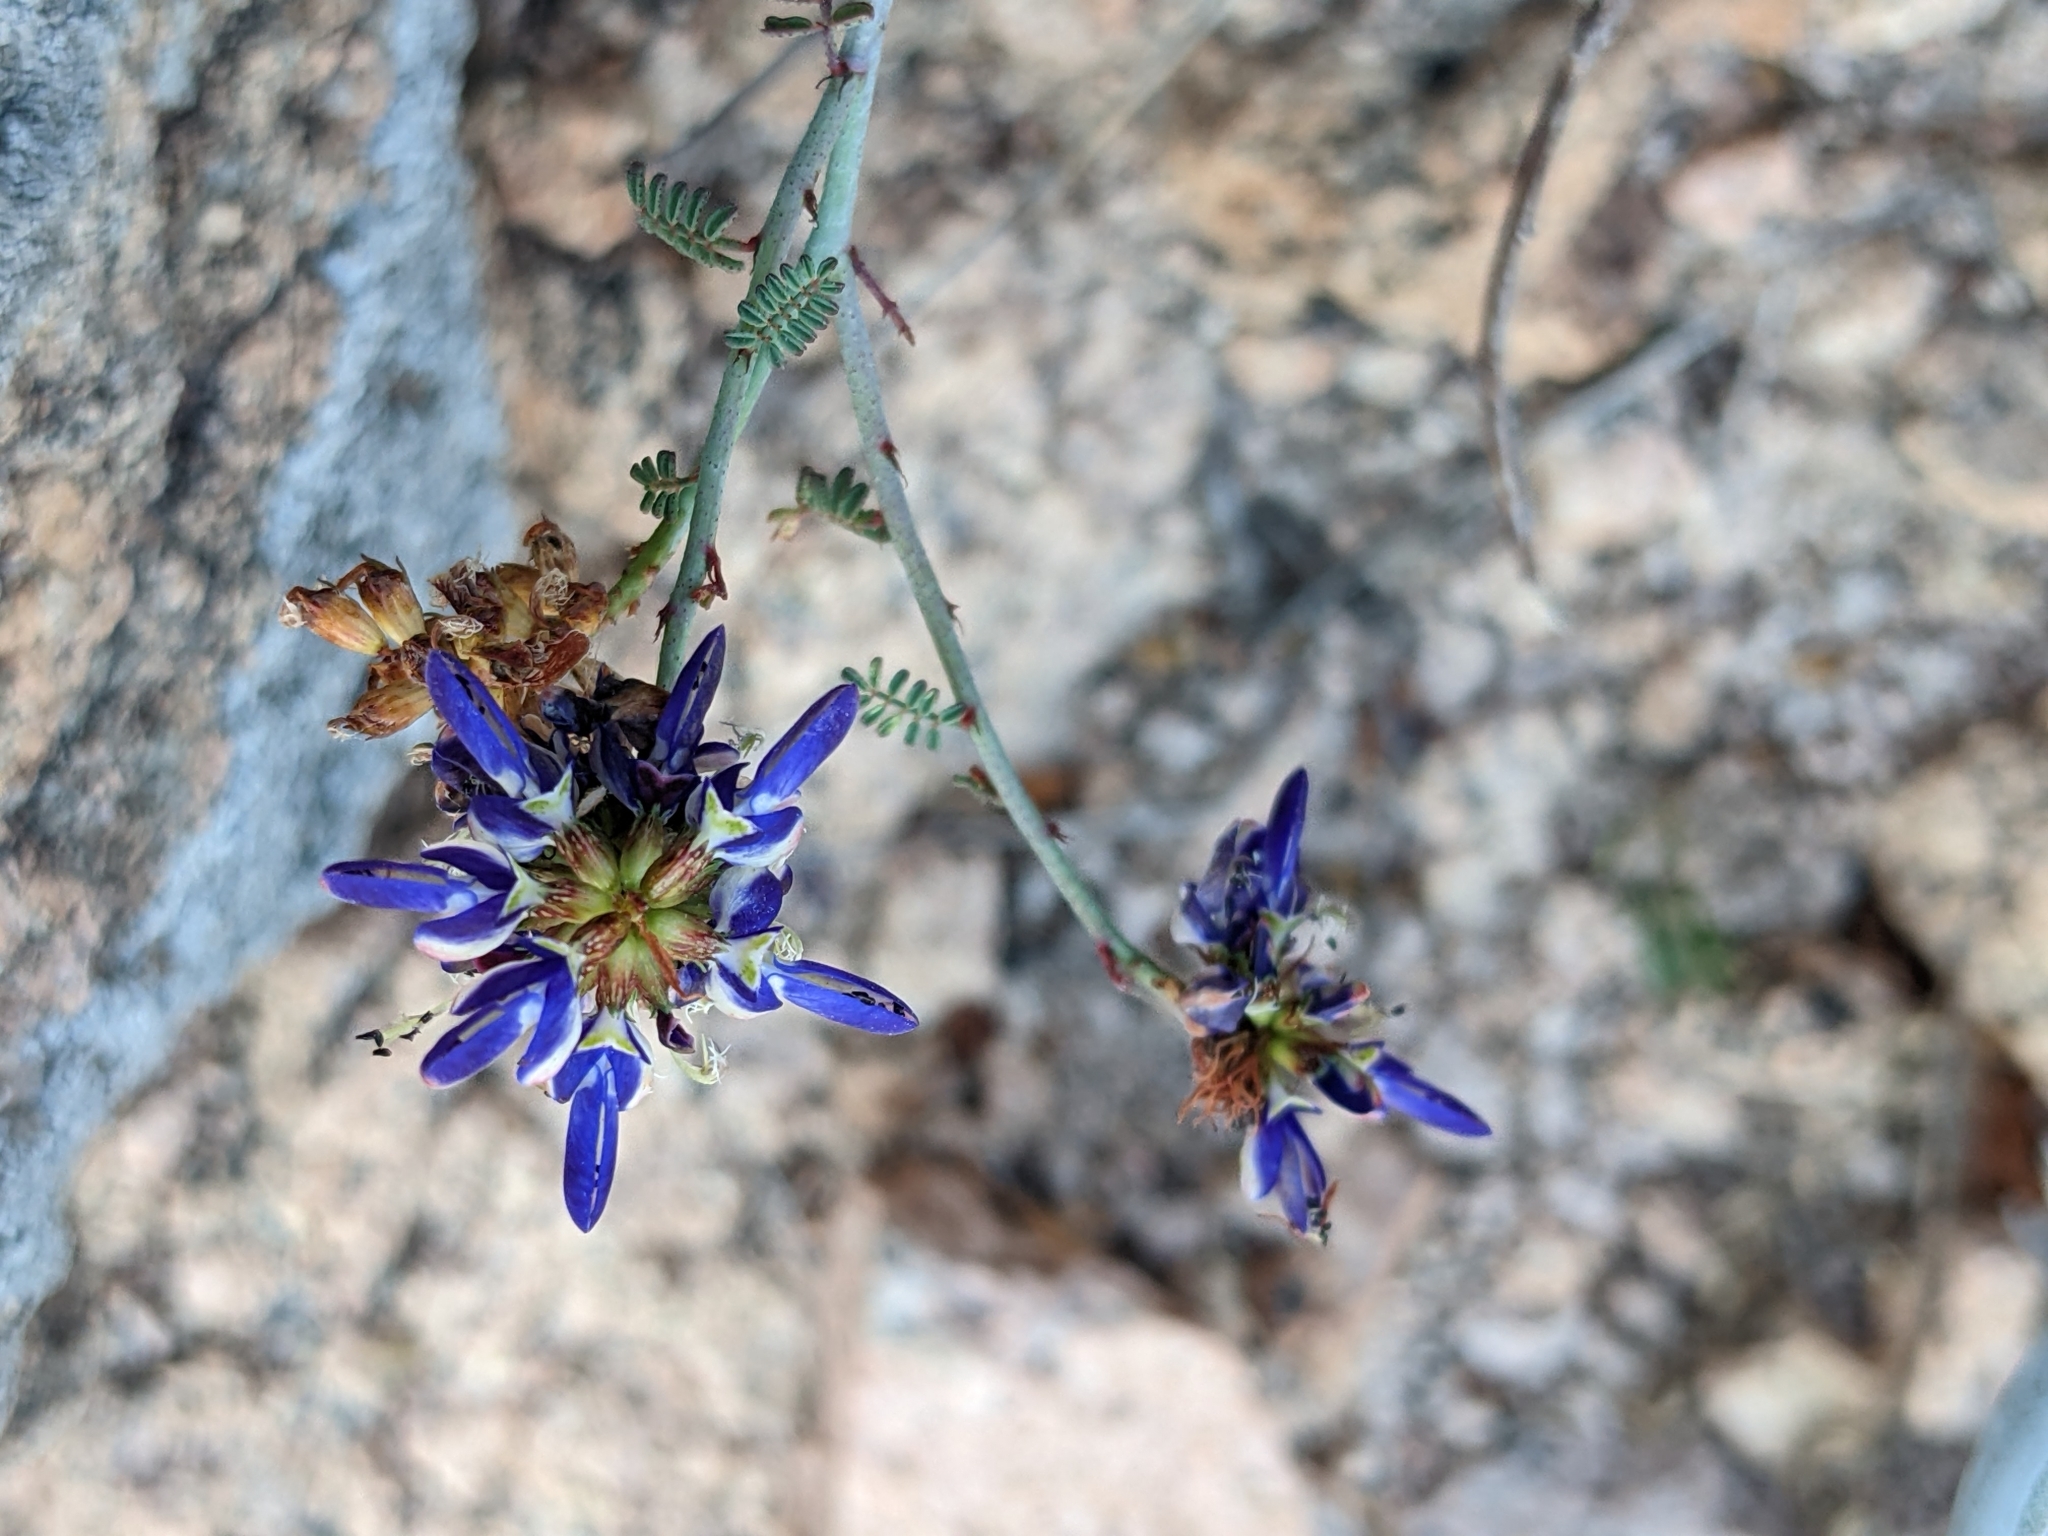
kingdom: Plantae
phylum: Tracheophyta
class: Magnoliopsida
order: Fabales
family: Fabaceae
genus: Marina
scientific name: Marina maritima
